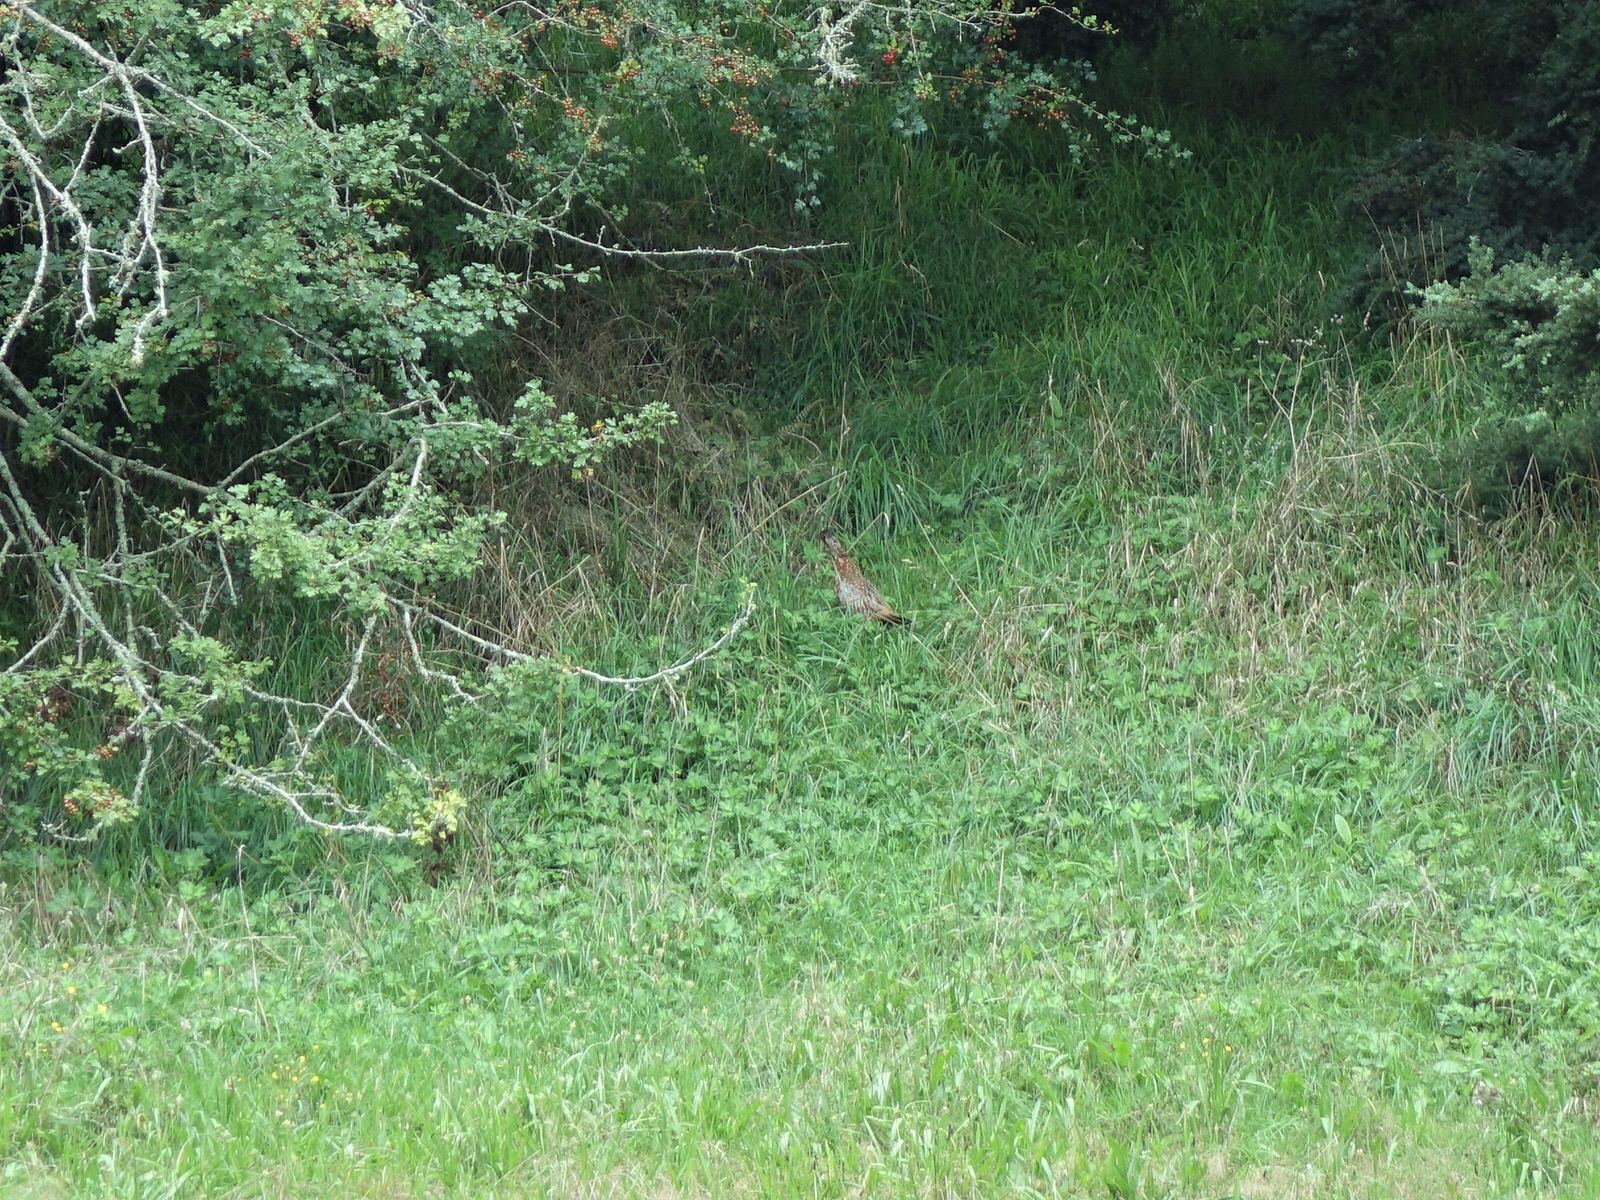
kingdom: Animalia
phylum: Chordata
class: Aves
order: Galliformes
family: Phasianidae
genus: Phasianus
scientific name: Phasianus colchicus
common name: Common pheasant
